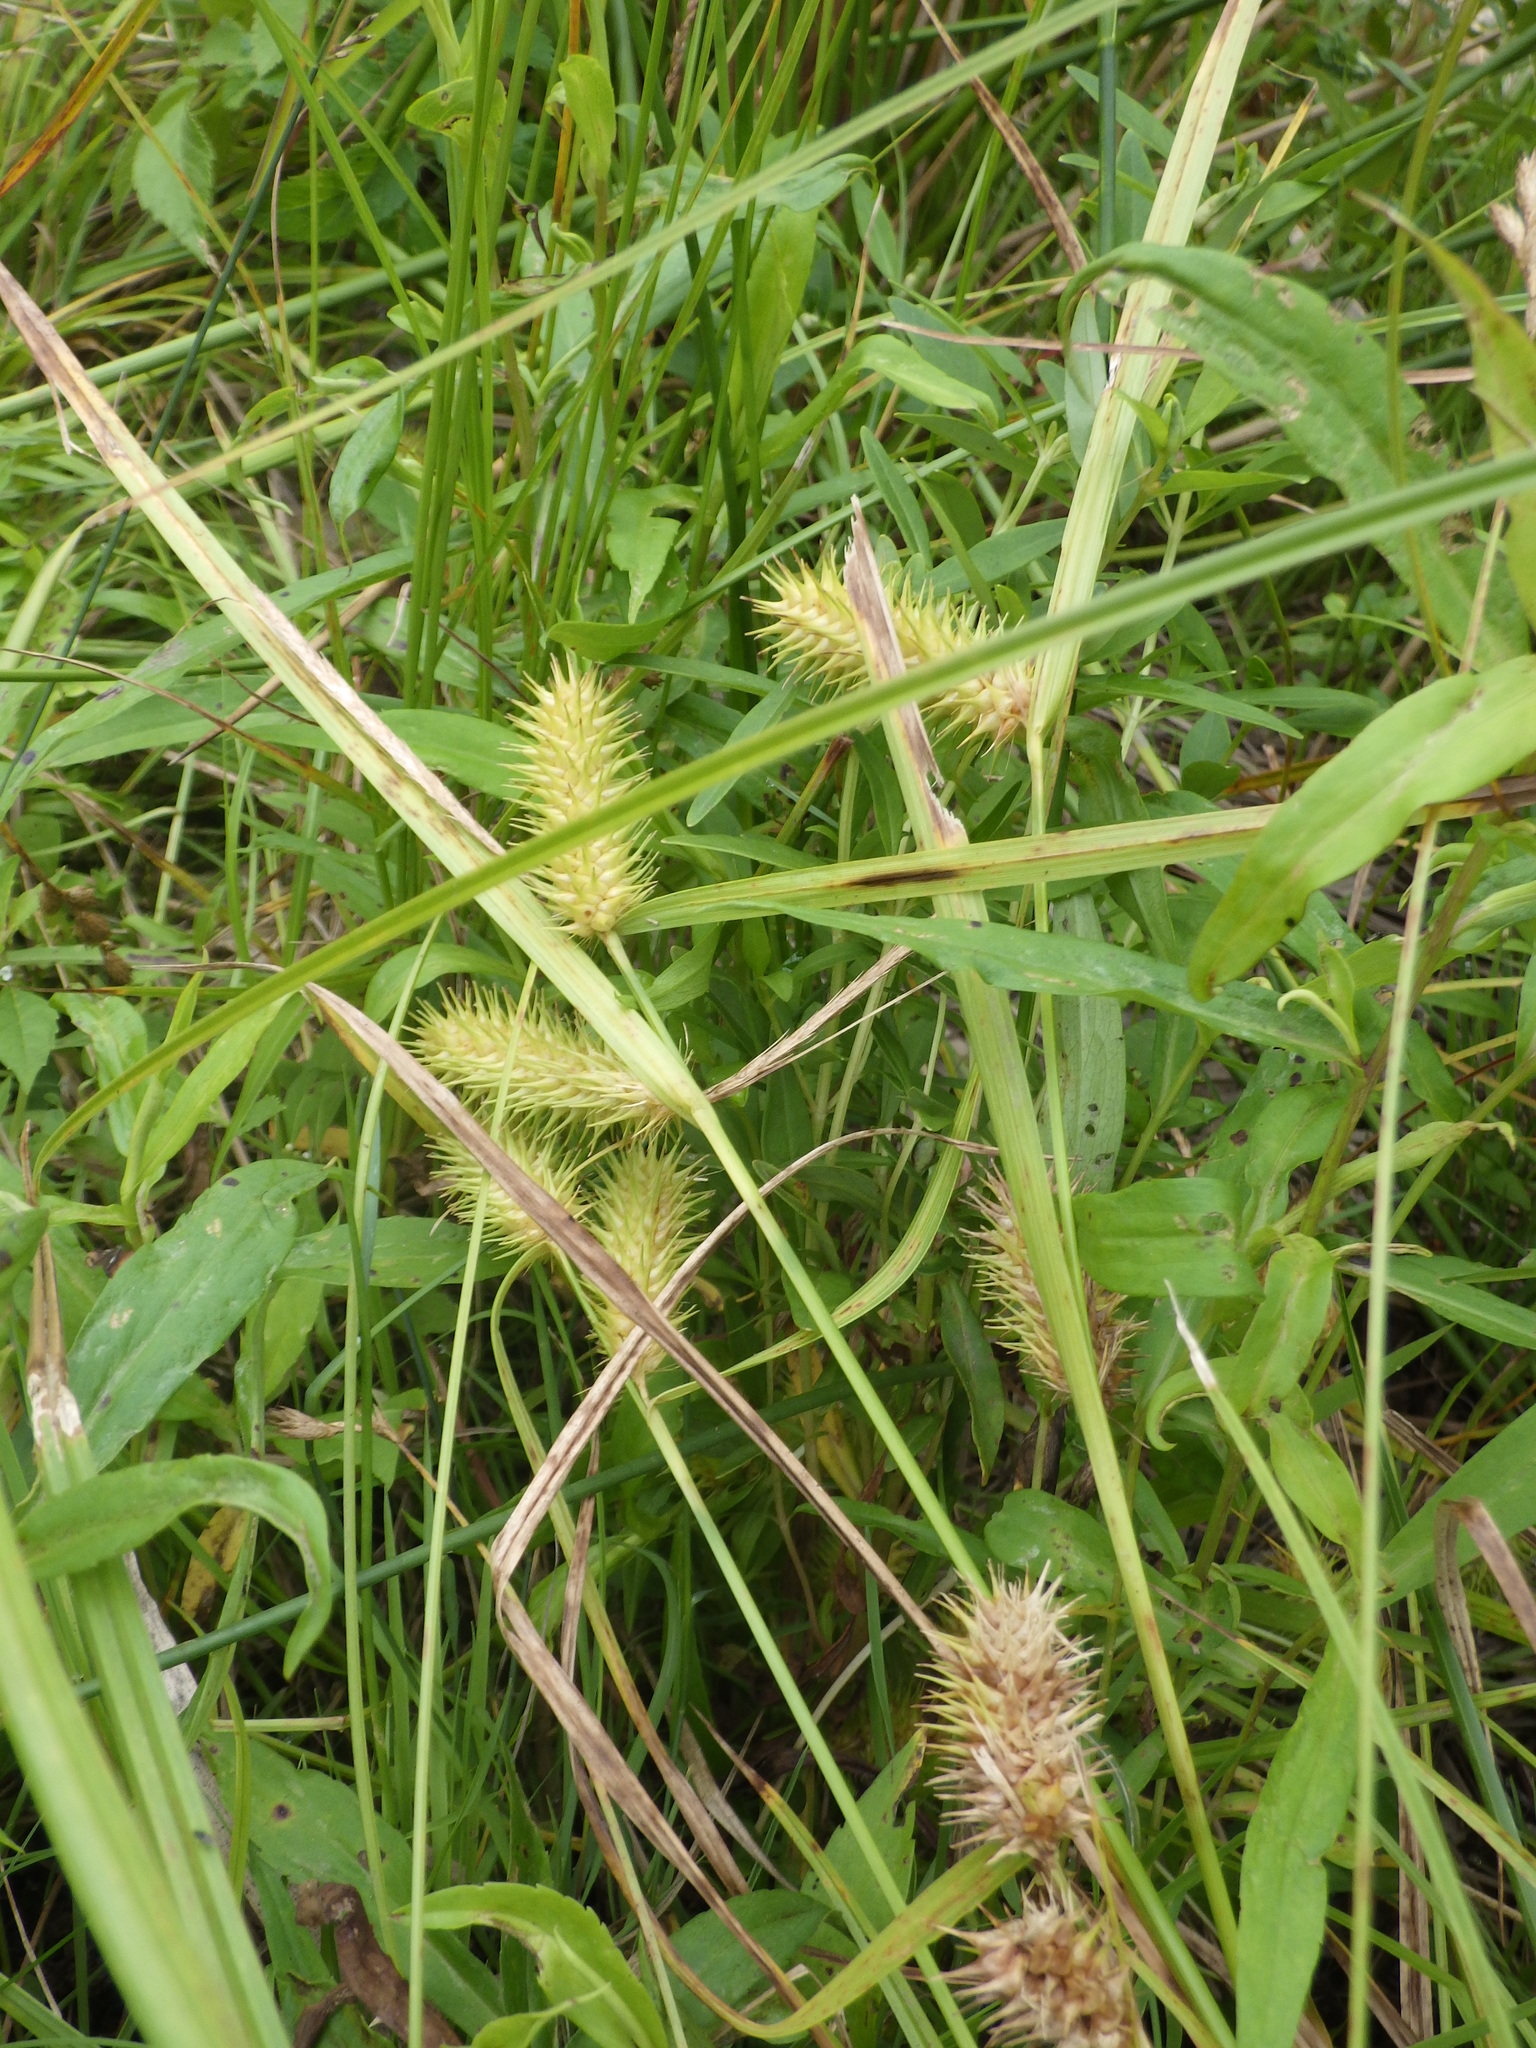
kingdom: Plantae
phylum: Tracheophyta
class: Liliopsida
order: Poales
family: Cyperaceae
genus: Carex
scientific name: Carex lurida
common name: Sallow sedge
